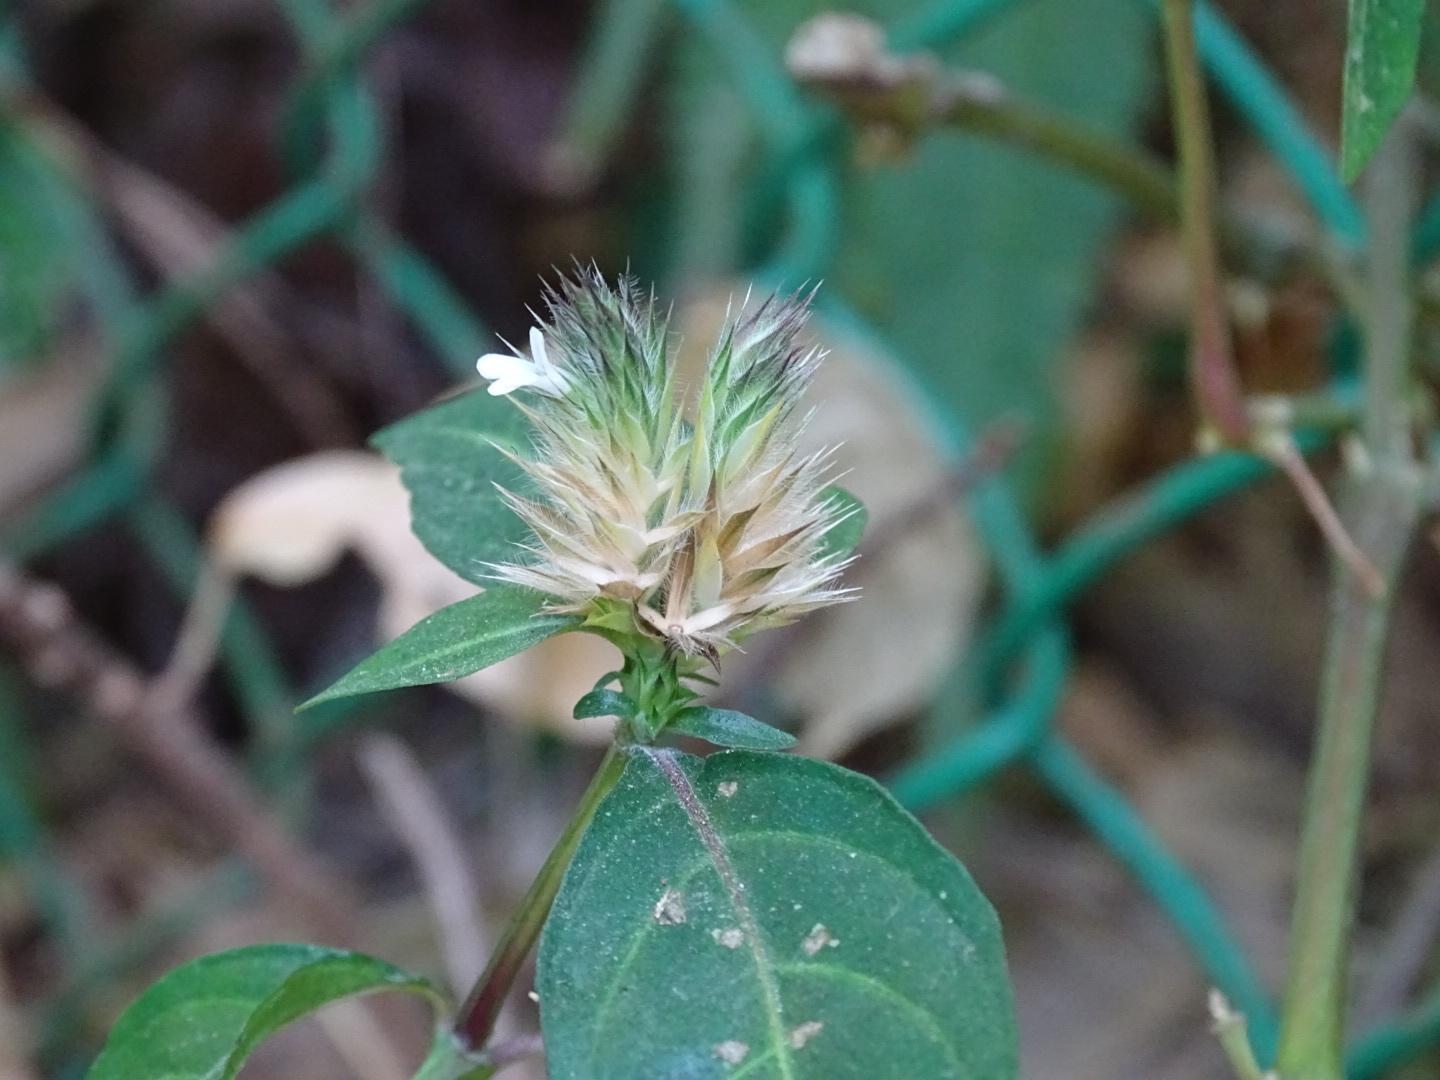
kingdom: Plantae
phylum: Tracheophyta
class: Magnoliopsida
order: Lamiales
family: Acanthaceae
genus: Lepidagathis
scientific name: Lepidagathis incurva
